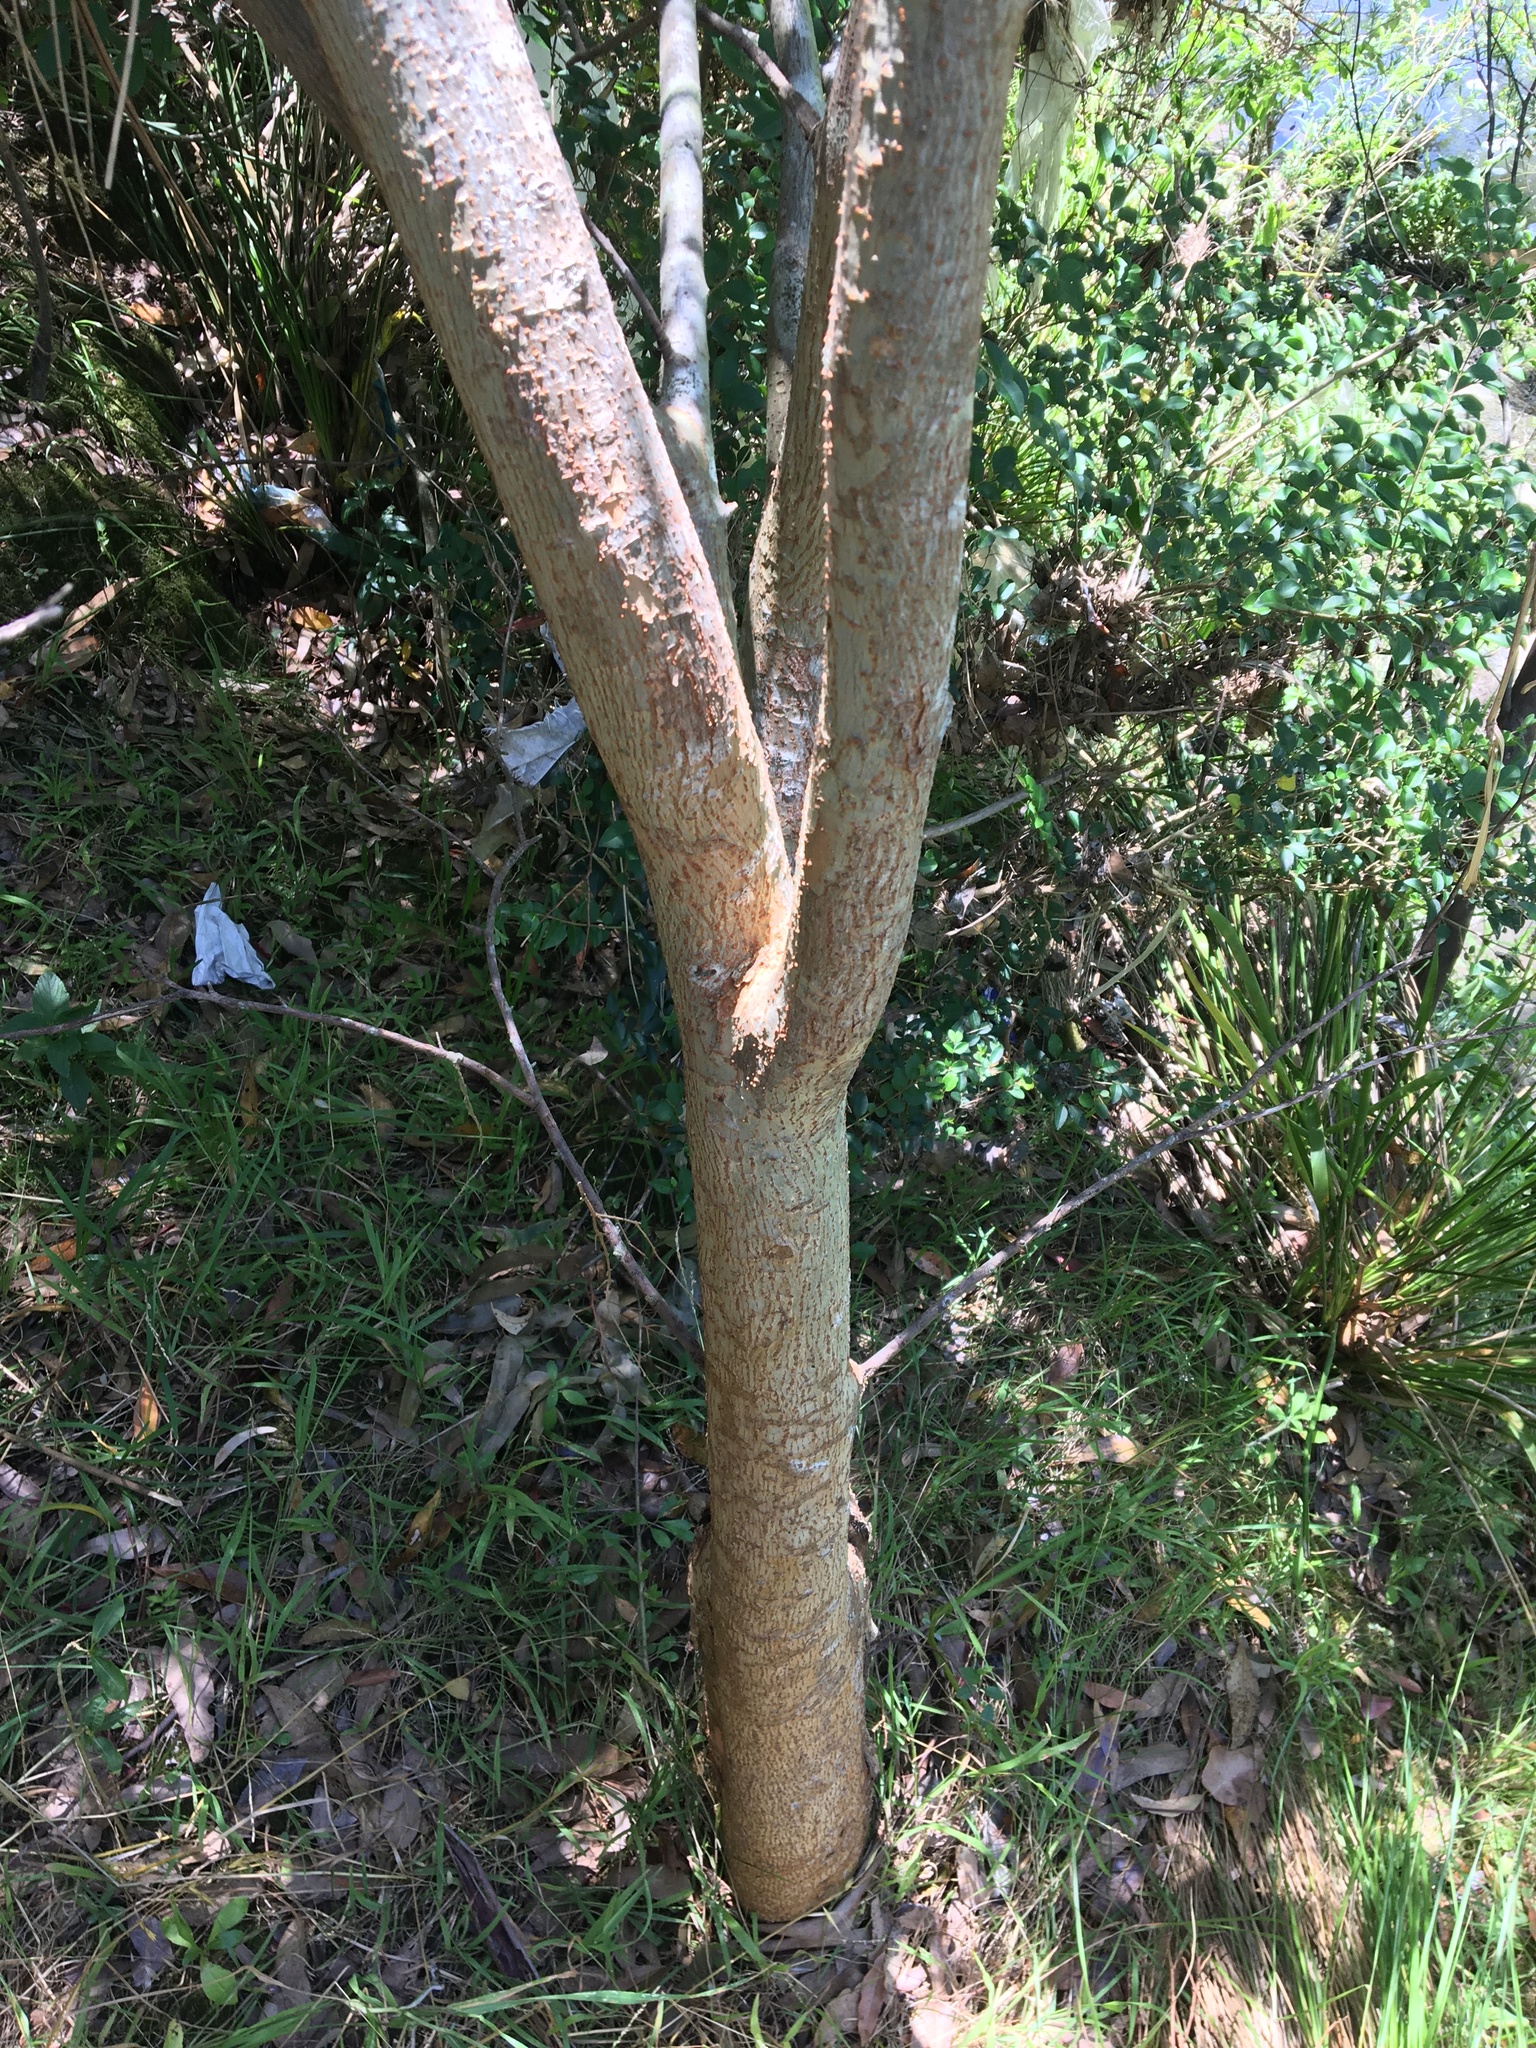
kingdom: Plantae
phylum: Tracheophyta
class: Magnoliopsida
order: Rosales
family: Ulmaceae
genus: Ulmus
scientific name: Ulmus parvifolia
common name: Chinese elm
